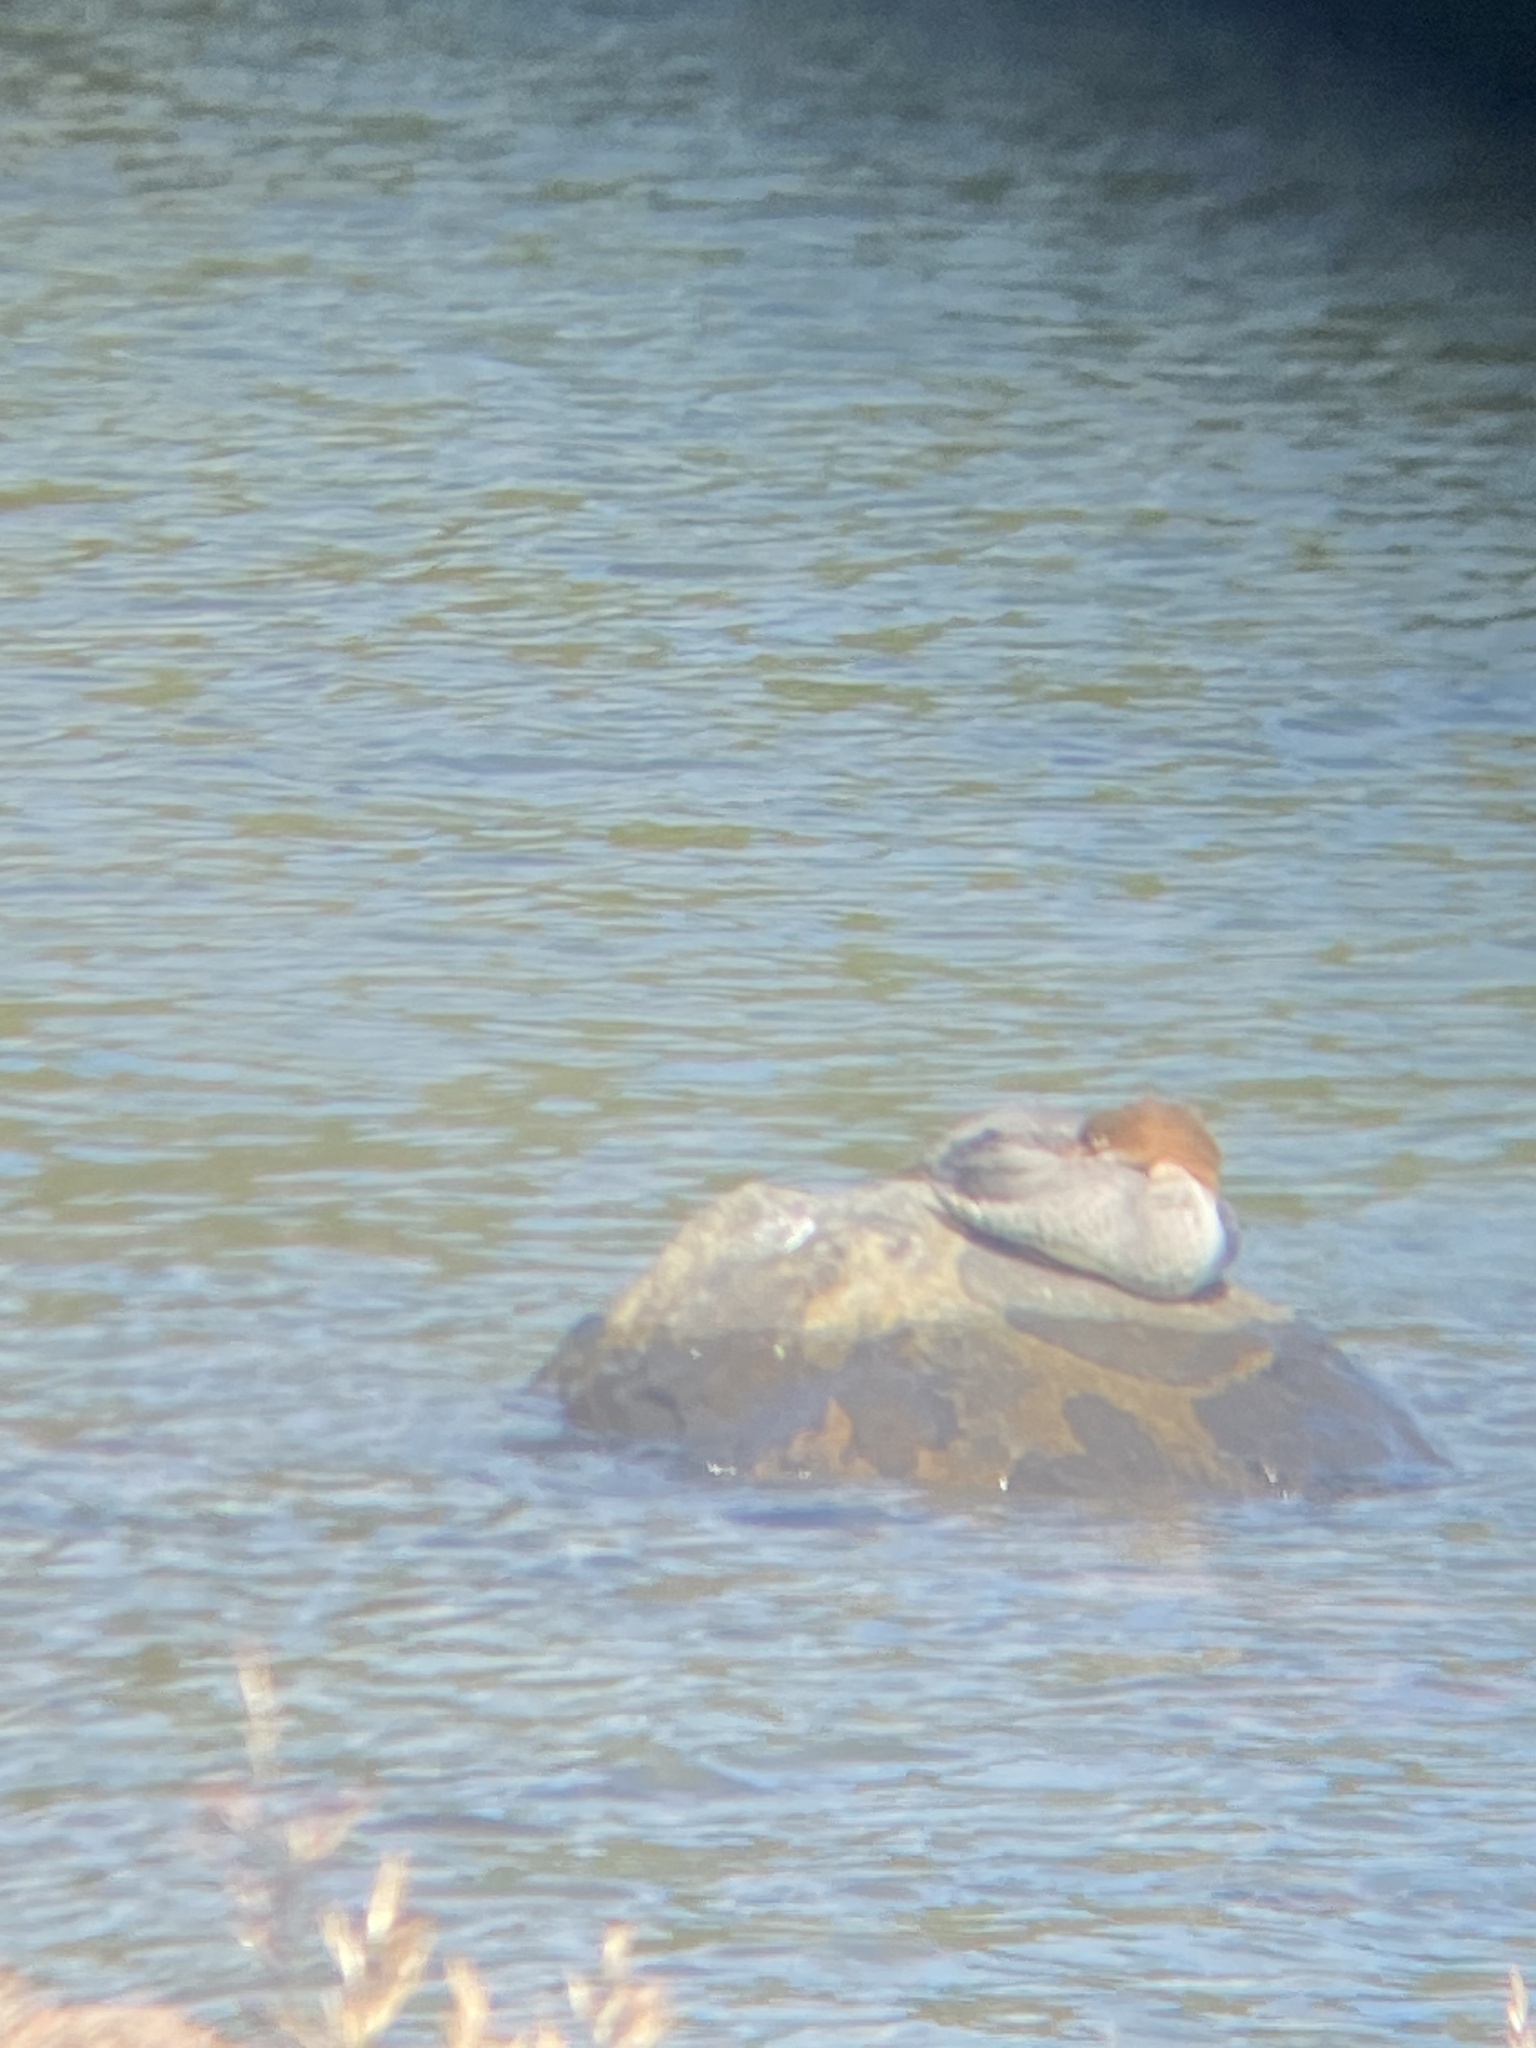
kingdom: Animalia
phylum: Chordata
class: Aves
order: Anseriformes
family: Anatidae
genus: Mergus
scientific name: Mergus merganser
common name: Common merganser
